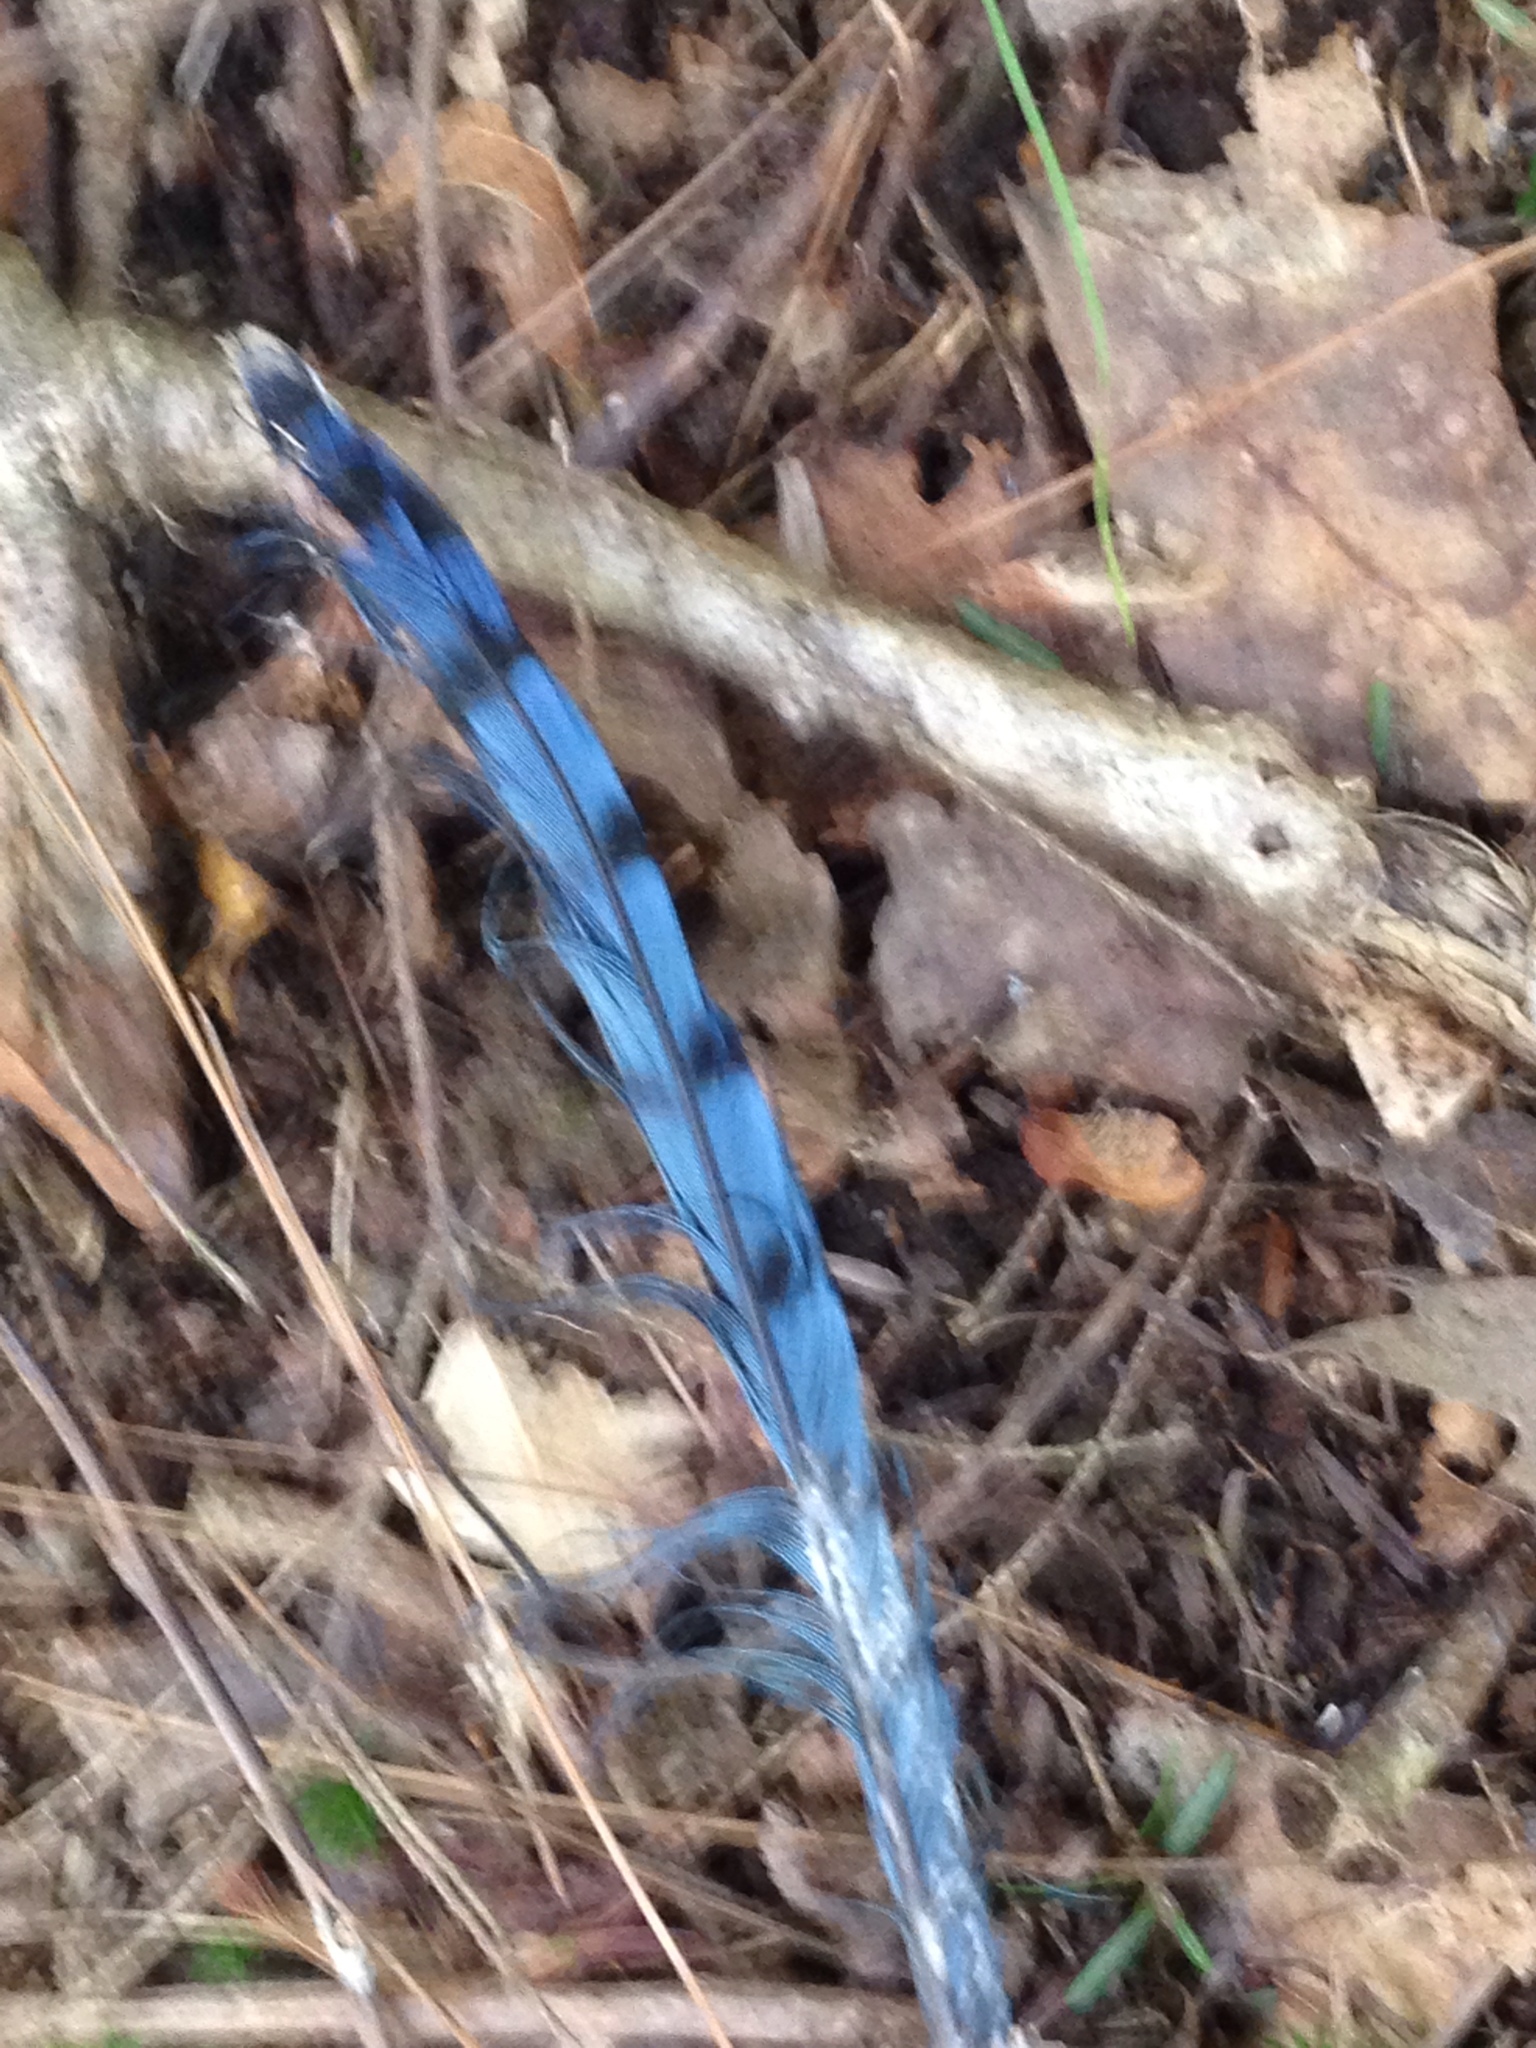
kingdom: Animalia
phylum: Chordata
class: Aves
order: Passeriformes
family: Corvidae
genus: Cyanocitta
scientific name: Cyanocitta cristata
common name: Blue jay
